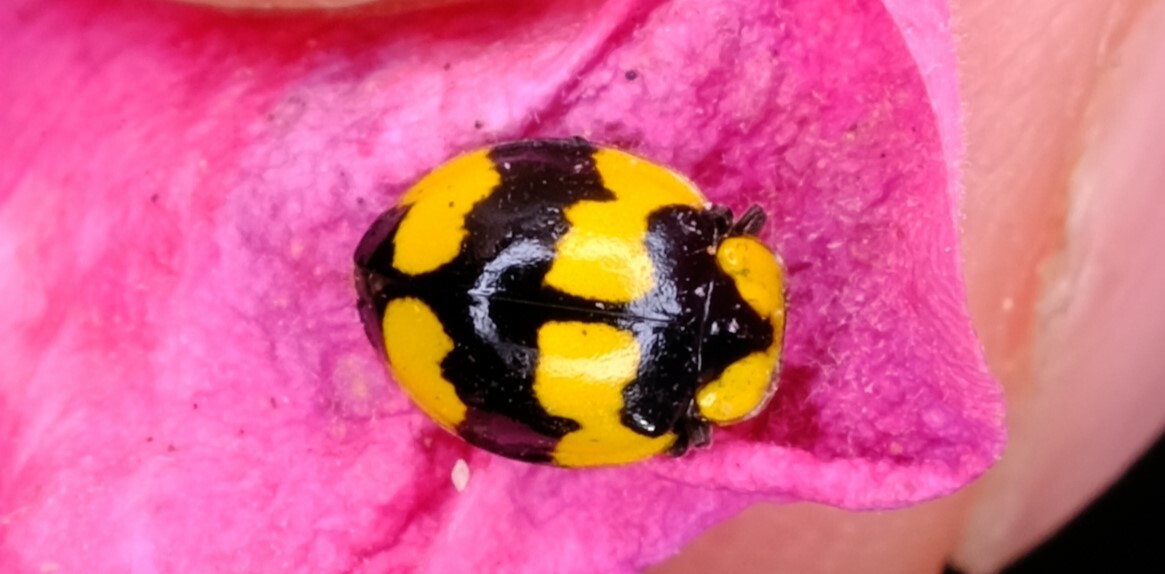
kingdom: Animalia
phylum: Arthropoda
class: Insecta
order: Coleoptera
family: Coccinellidae
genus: Illeis
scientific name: Illeis galbula
